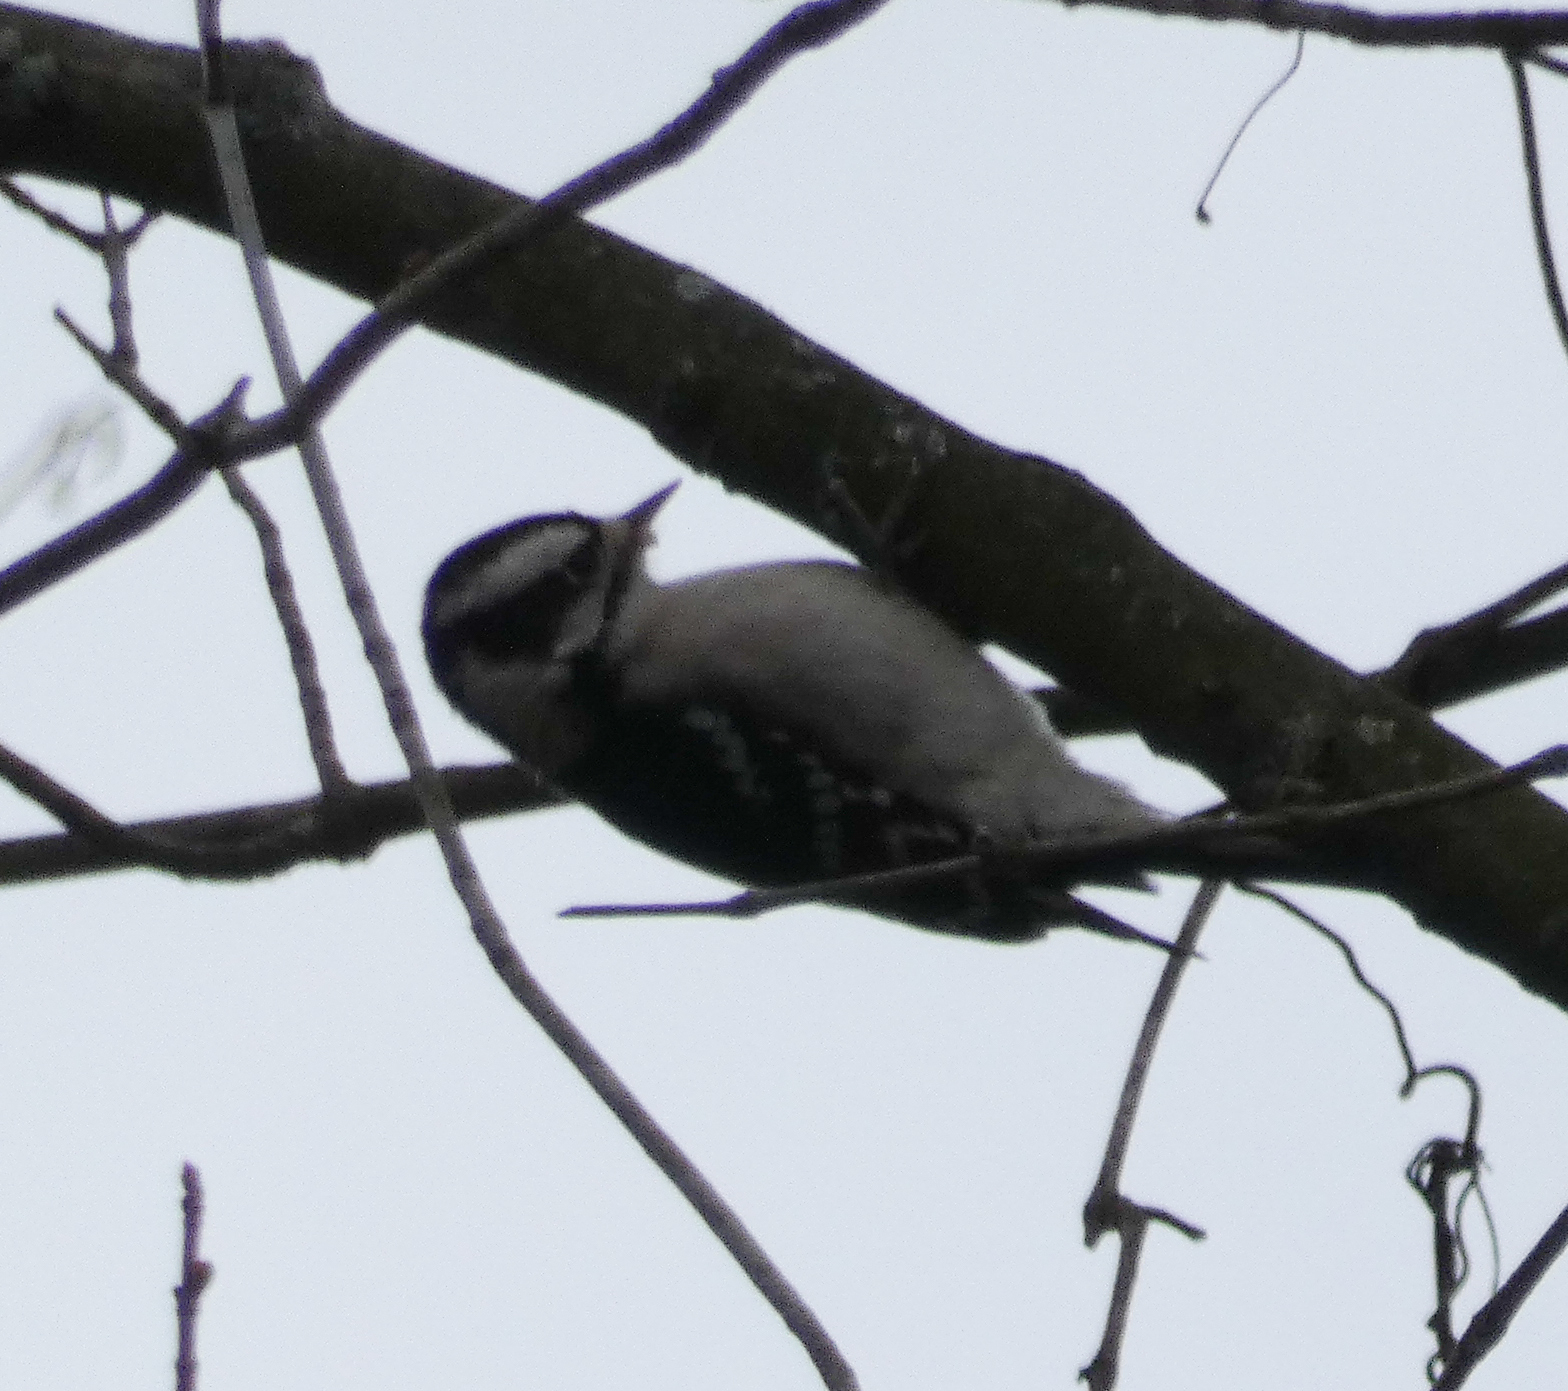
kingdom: Animalia
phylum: Chordata
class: Aves
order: Piciformes
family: Picidae
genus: Dryobates
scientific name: Dryobates pubescens
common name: Downy woodpecker
